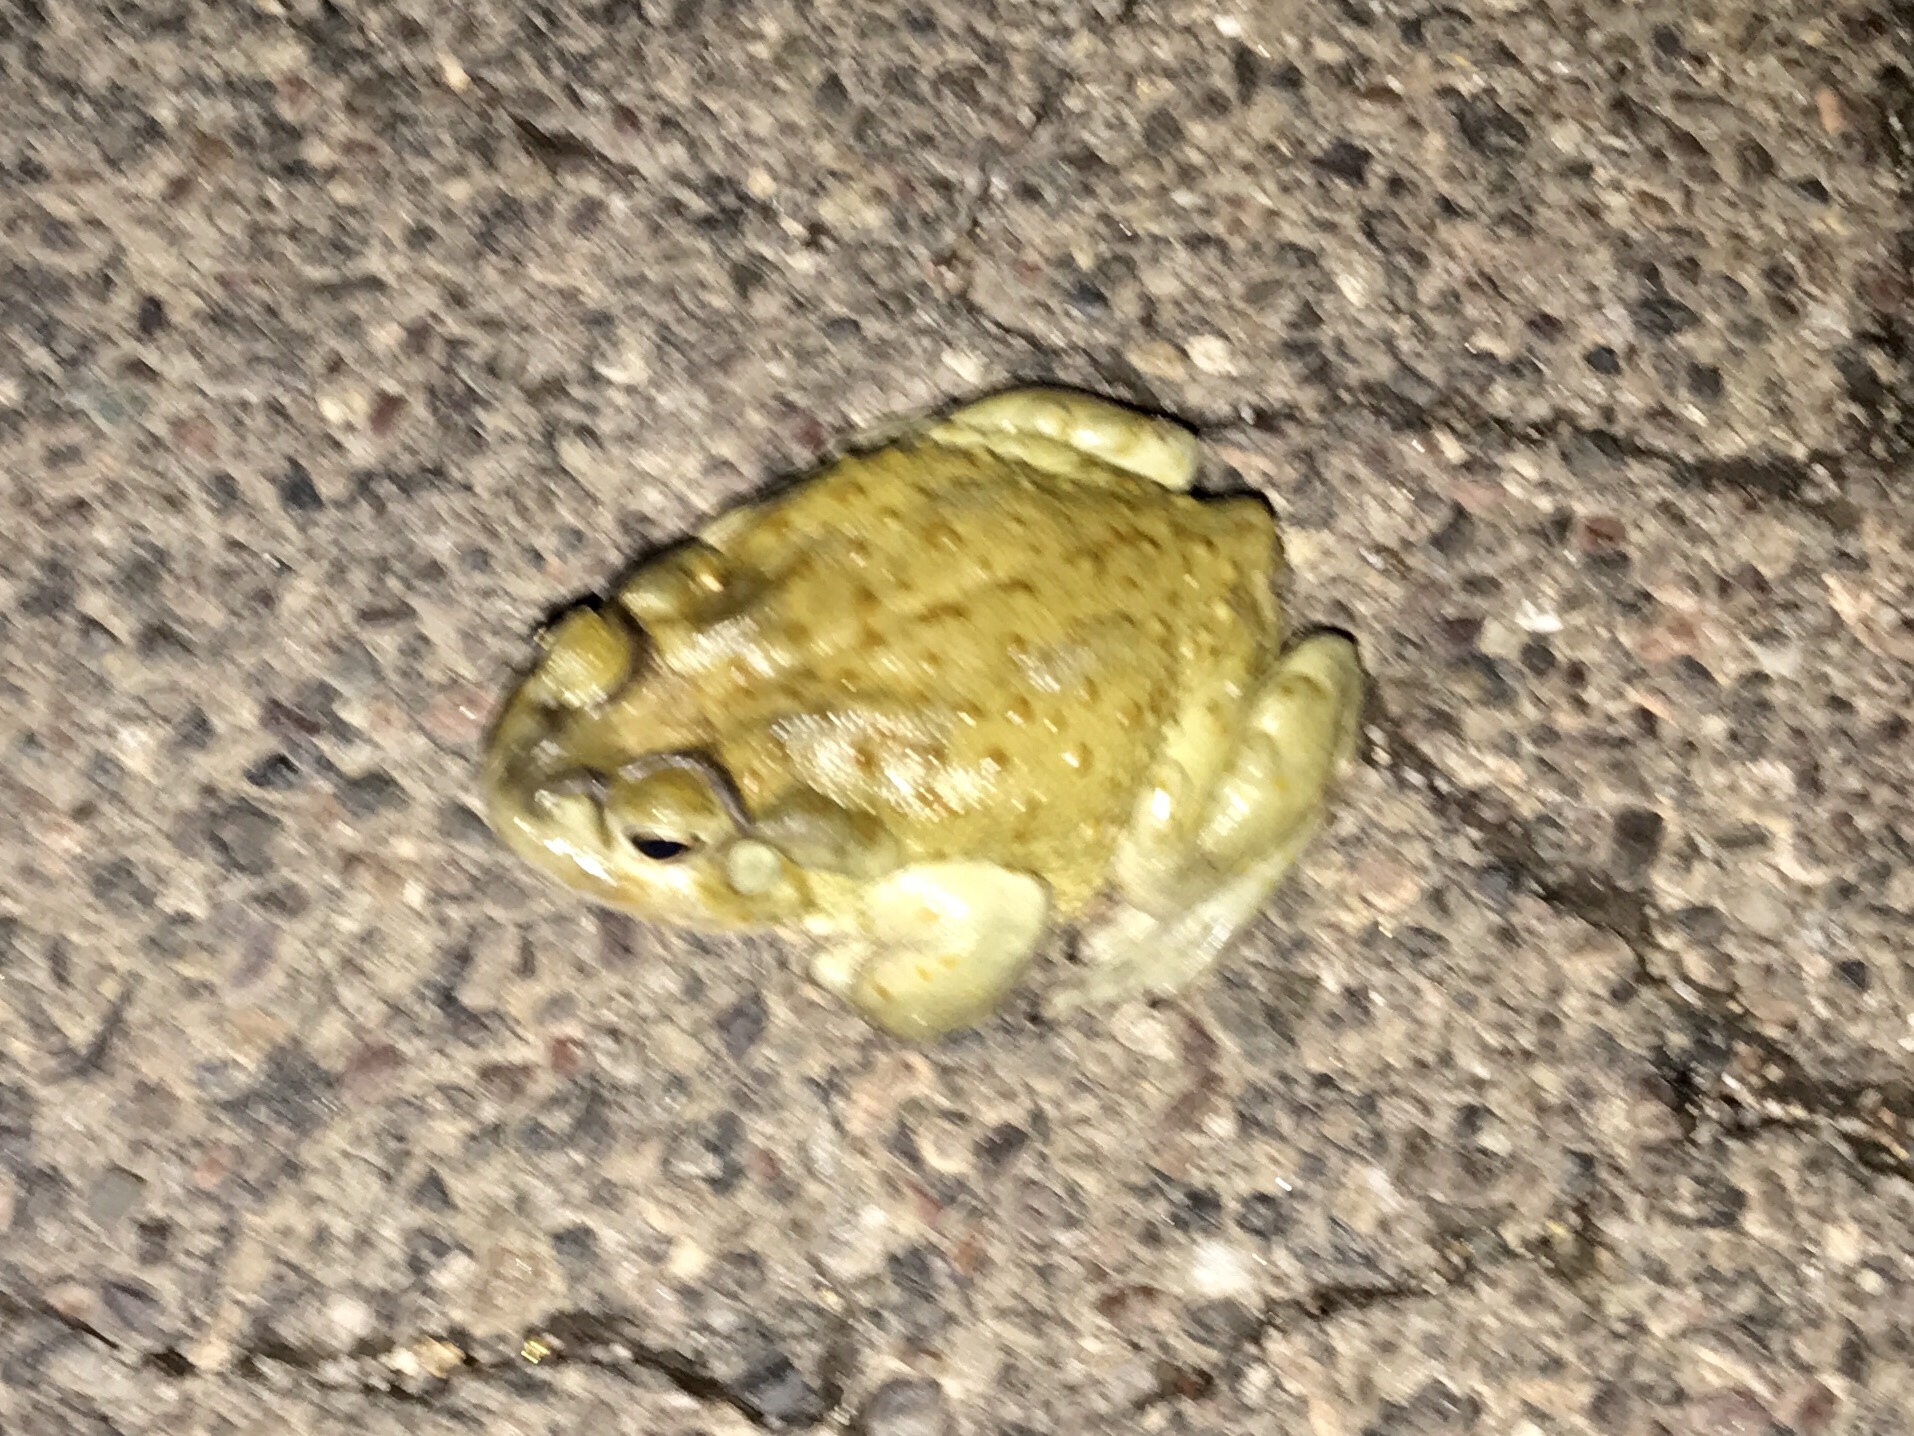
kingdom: Animalia
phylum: Chordata
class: Amphibia
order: Anura
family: Bufonidae
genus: Incilius
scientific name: Incilius alvarius
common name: Sonoran desert toad
